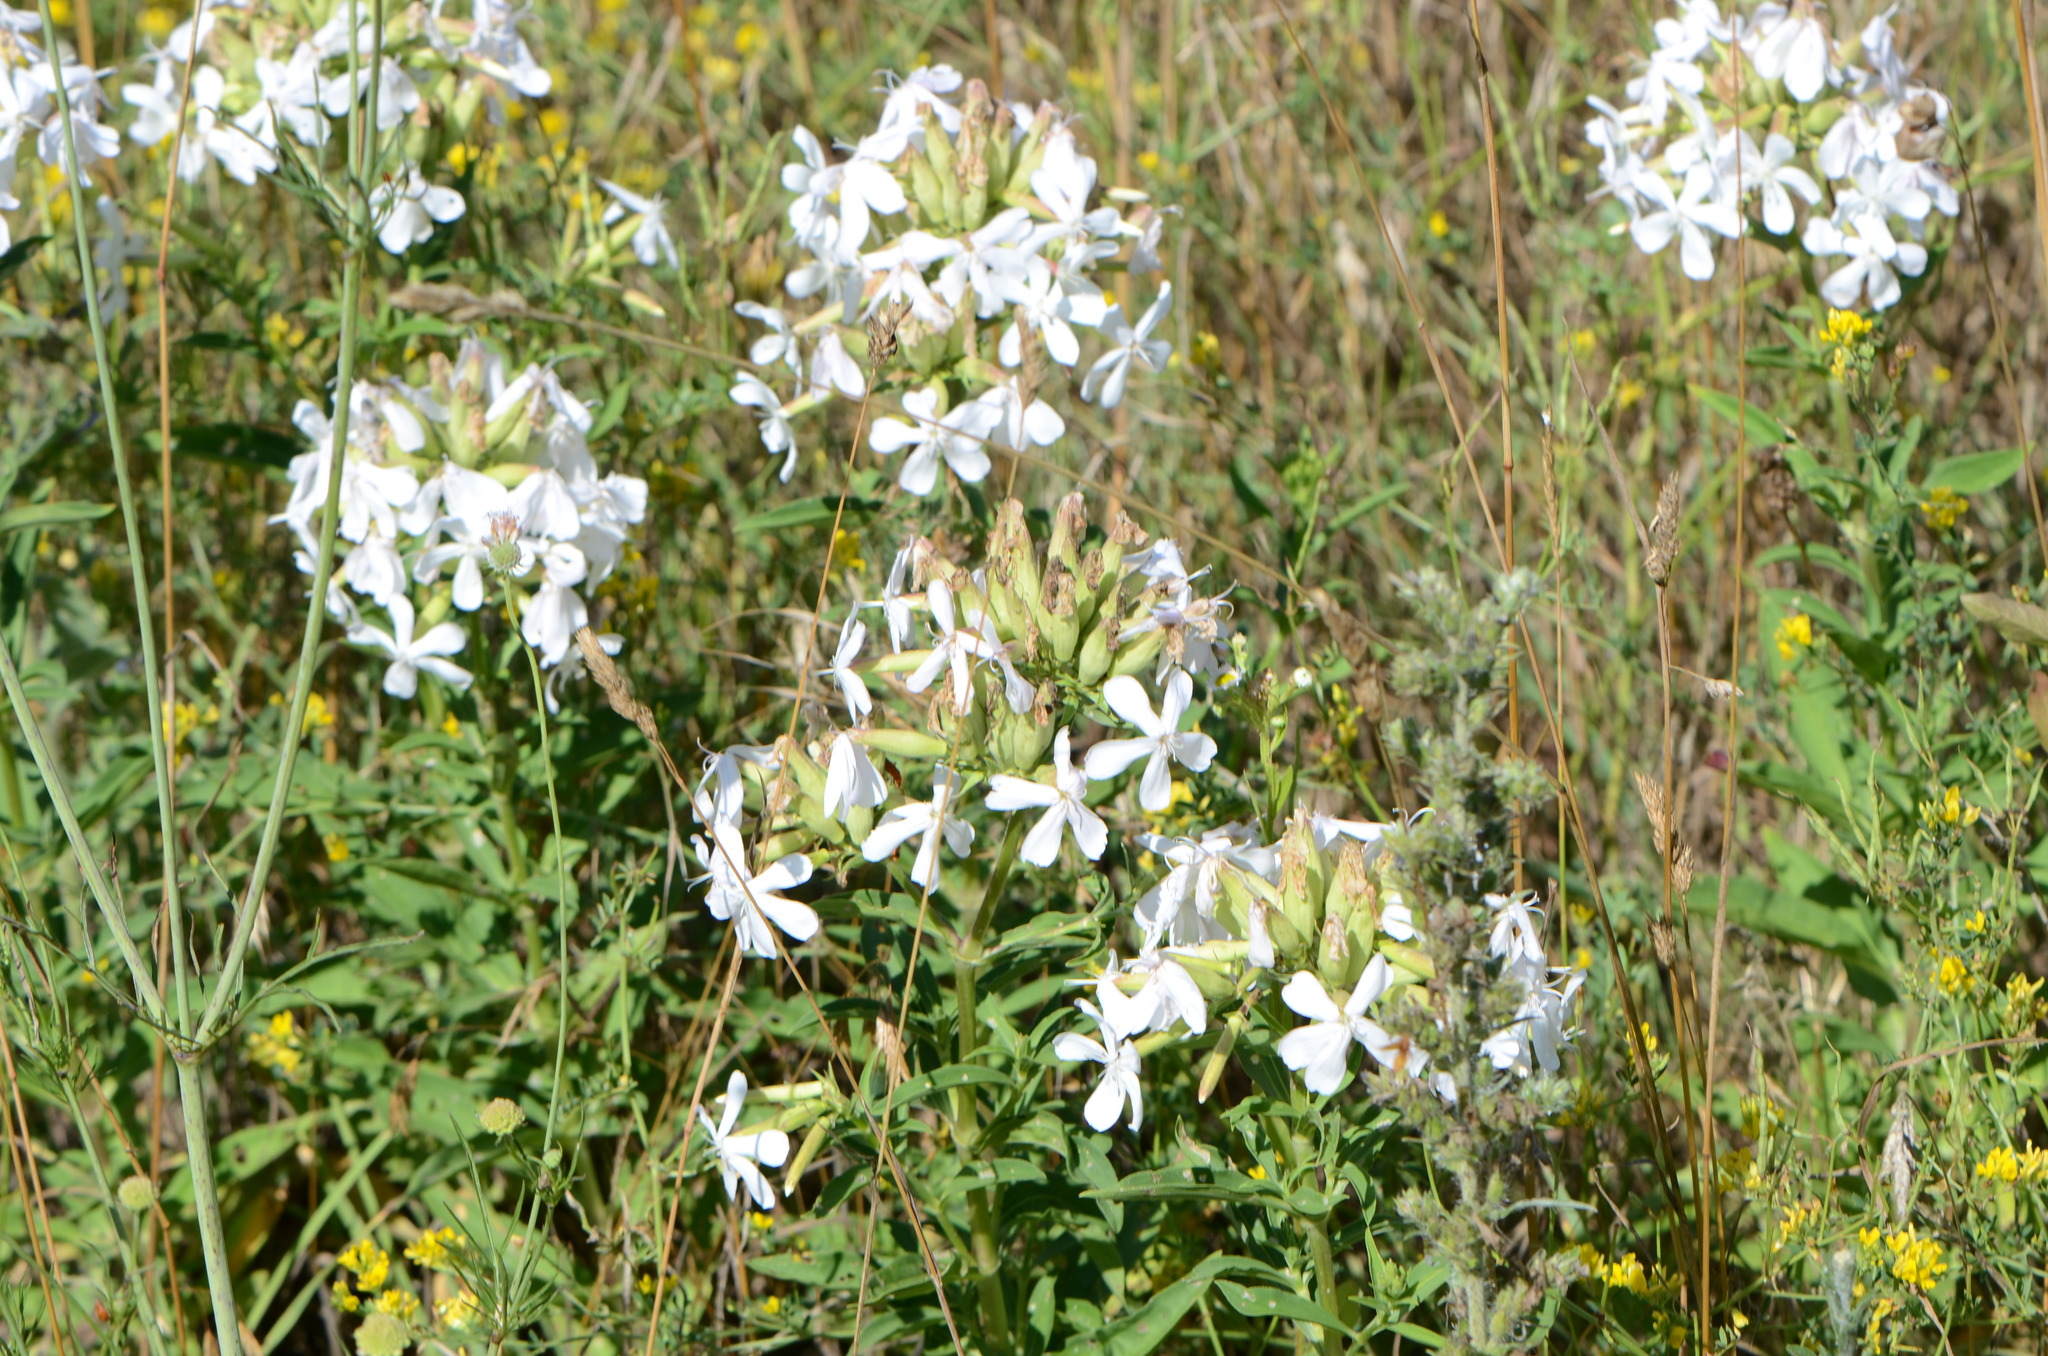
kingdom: Plantae
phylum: Tracheophyta
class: Magnoliopsida
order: Caryophyllales
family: Caryophyllaceae
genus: Saponaria
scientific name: Saponaria officinalis
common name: Soapwort
